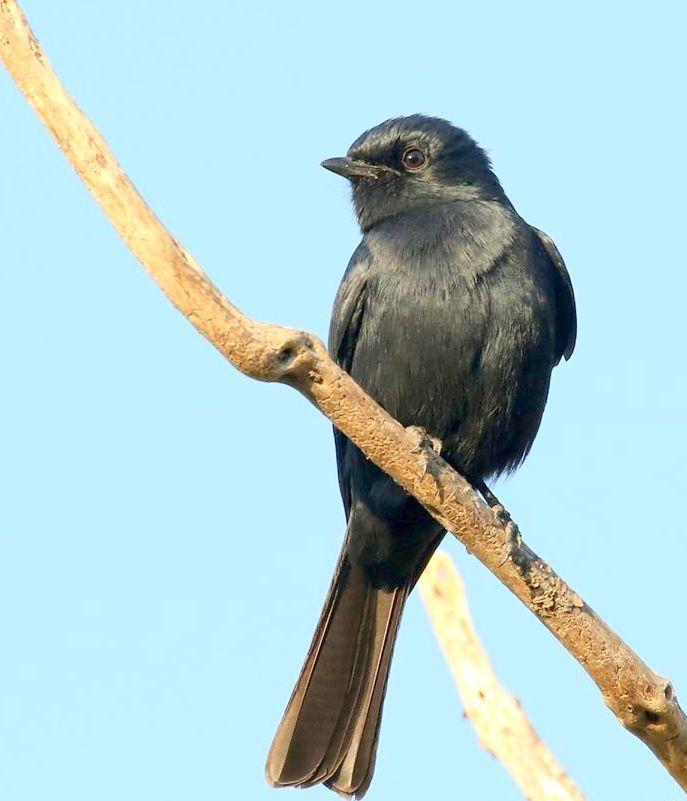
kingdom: Animalia
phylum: Chordata
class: Aves
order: Passeriformes
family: Muscicapidae
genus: Melaenornis
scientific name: Melaenornis pammelaina
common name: Southern black flycatcher
